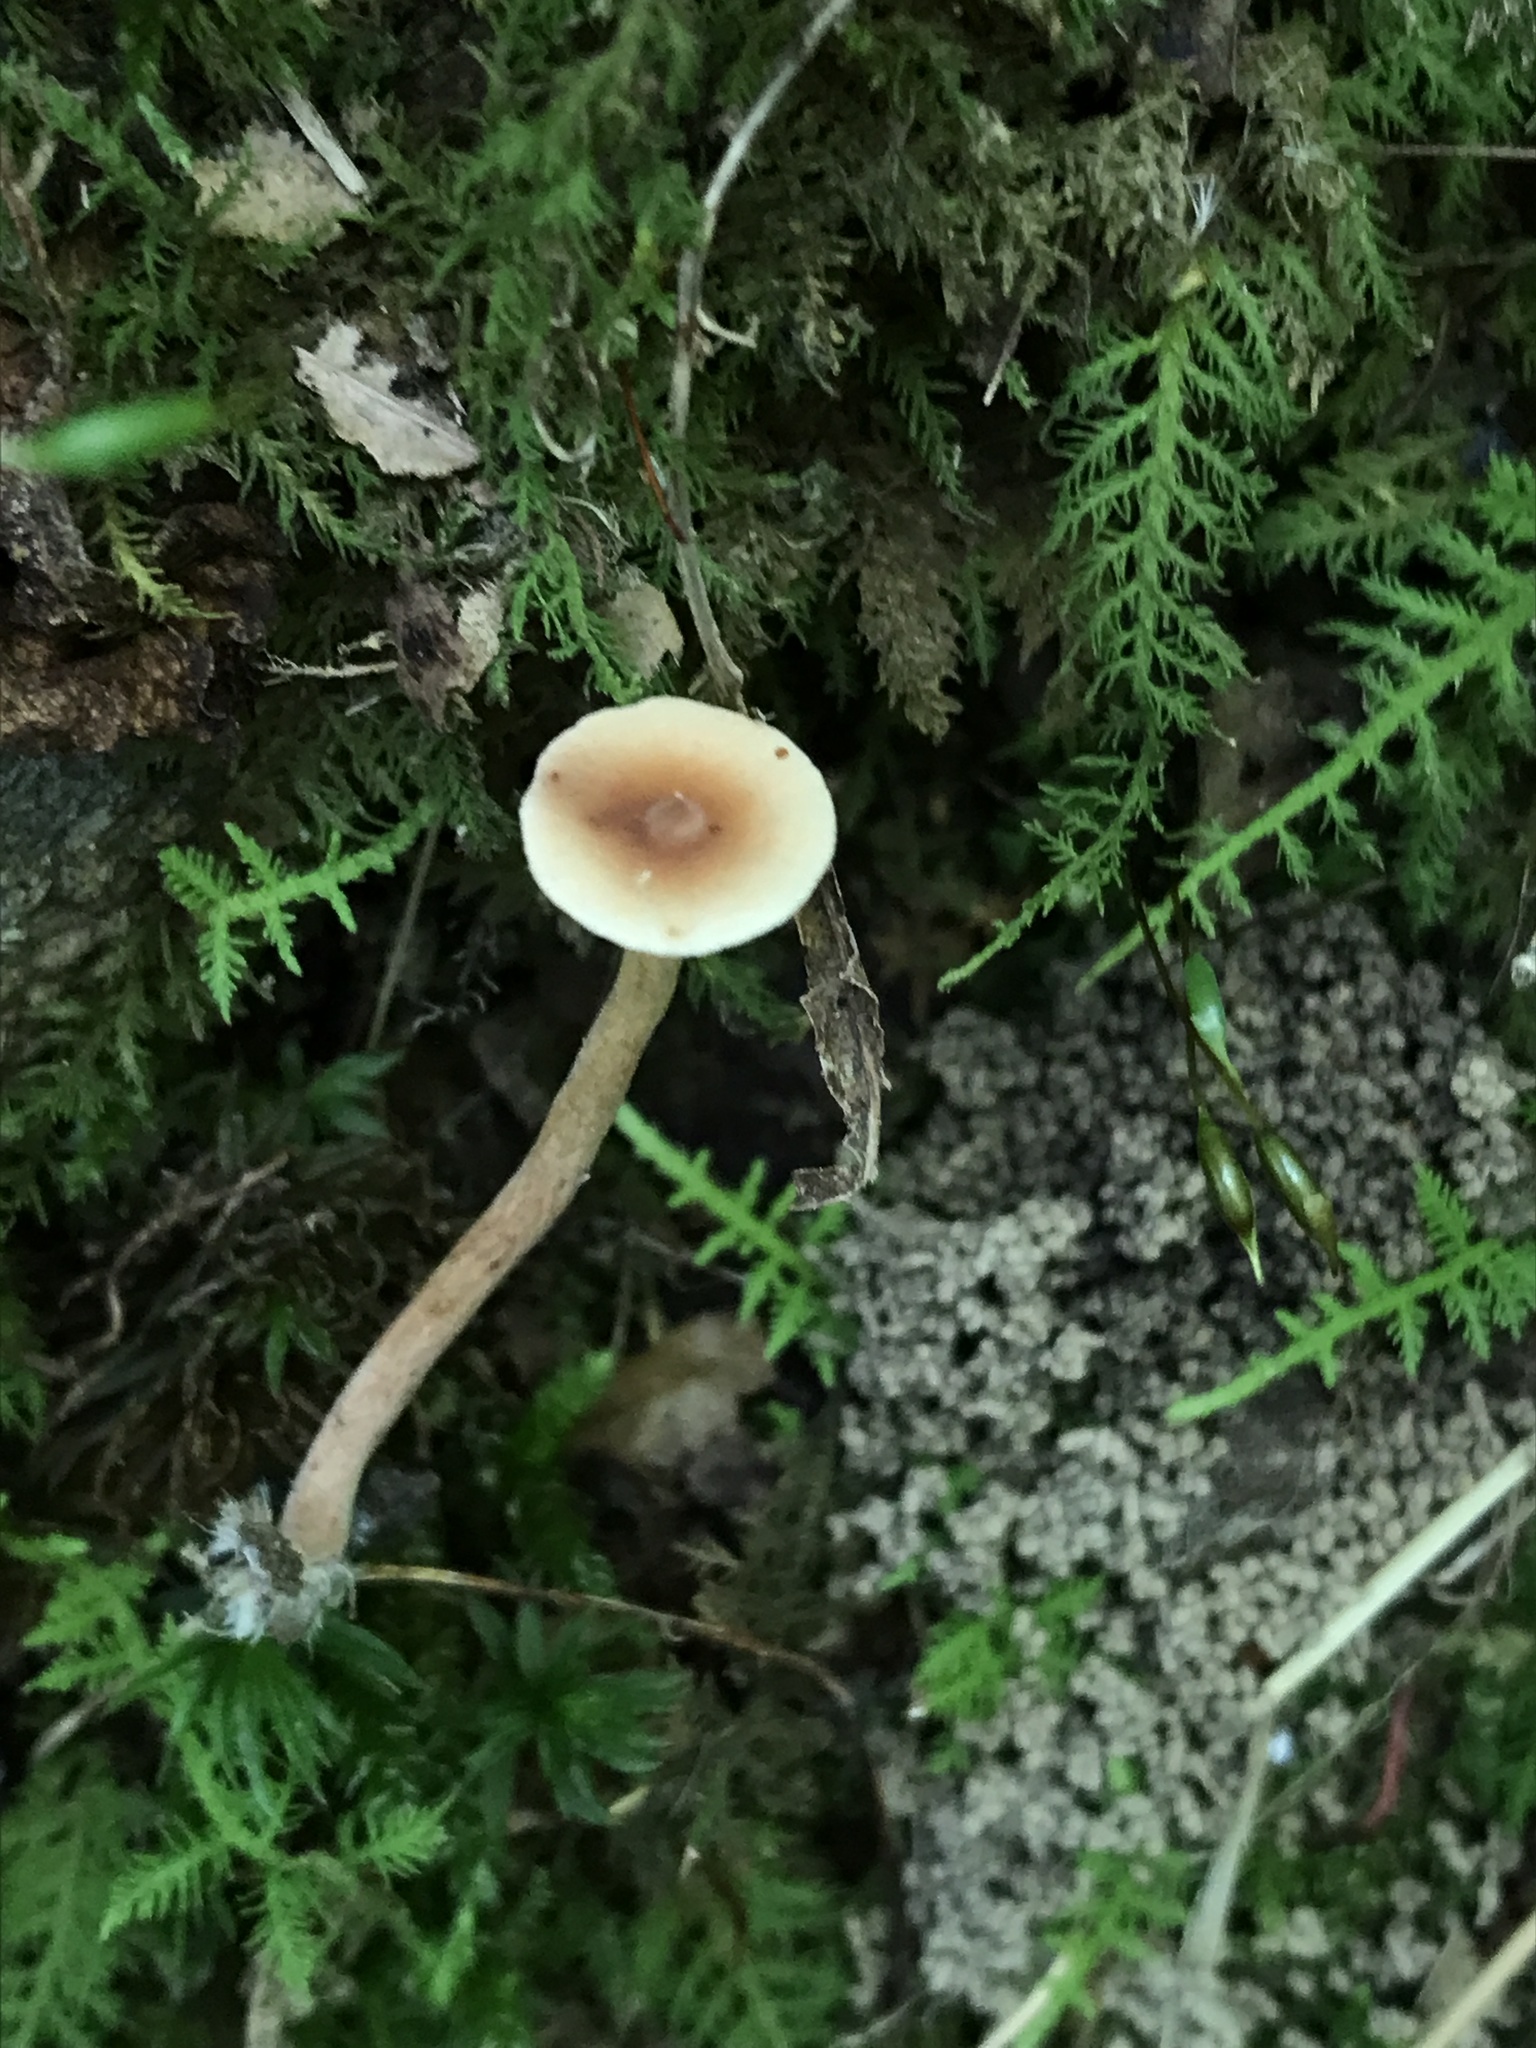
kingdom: Fungi
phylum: Basidiomycota
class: Agaricomycetes
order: Russulales
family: Russulaceae
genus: Lactarius
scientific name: Lactarius camphoratus
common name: Curry milkcap
